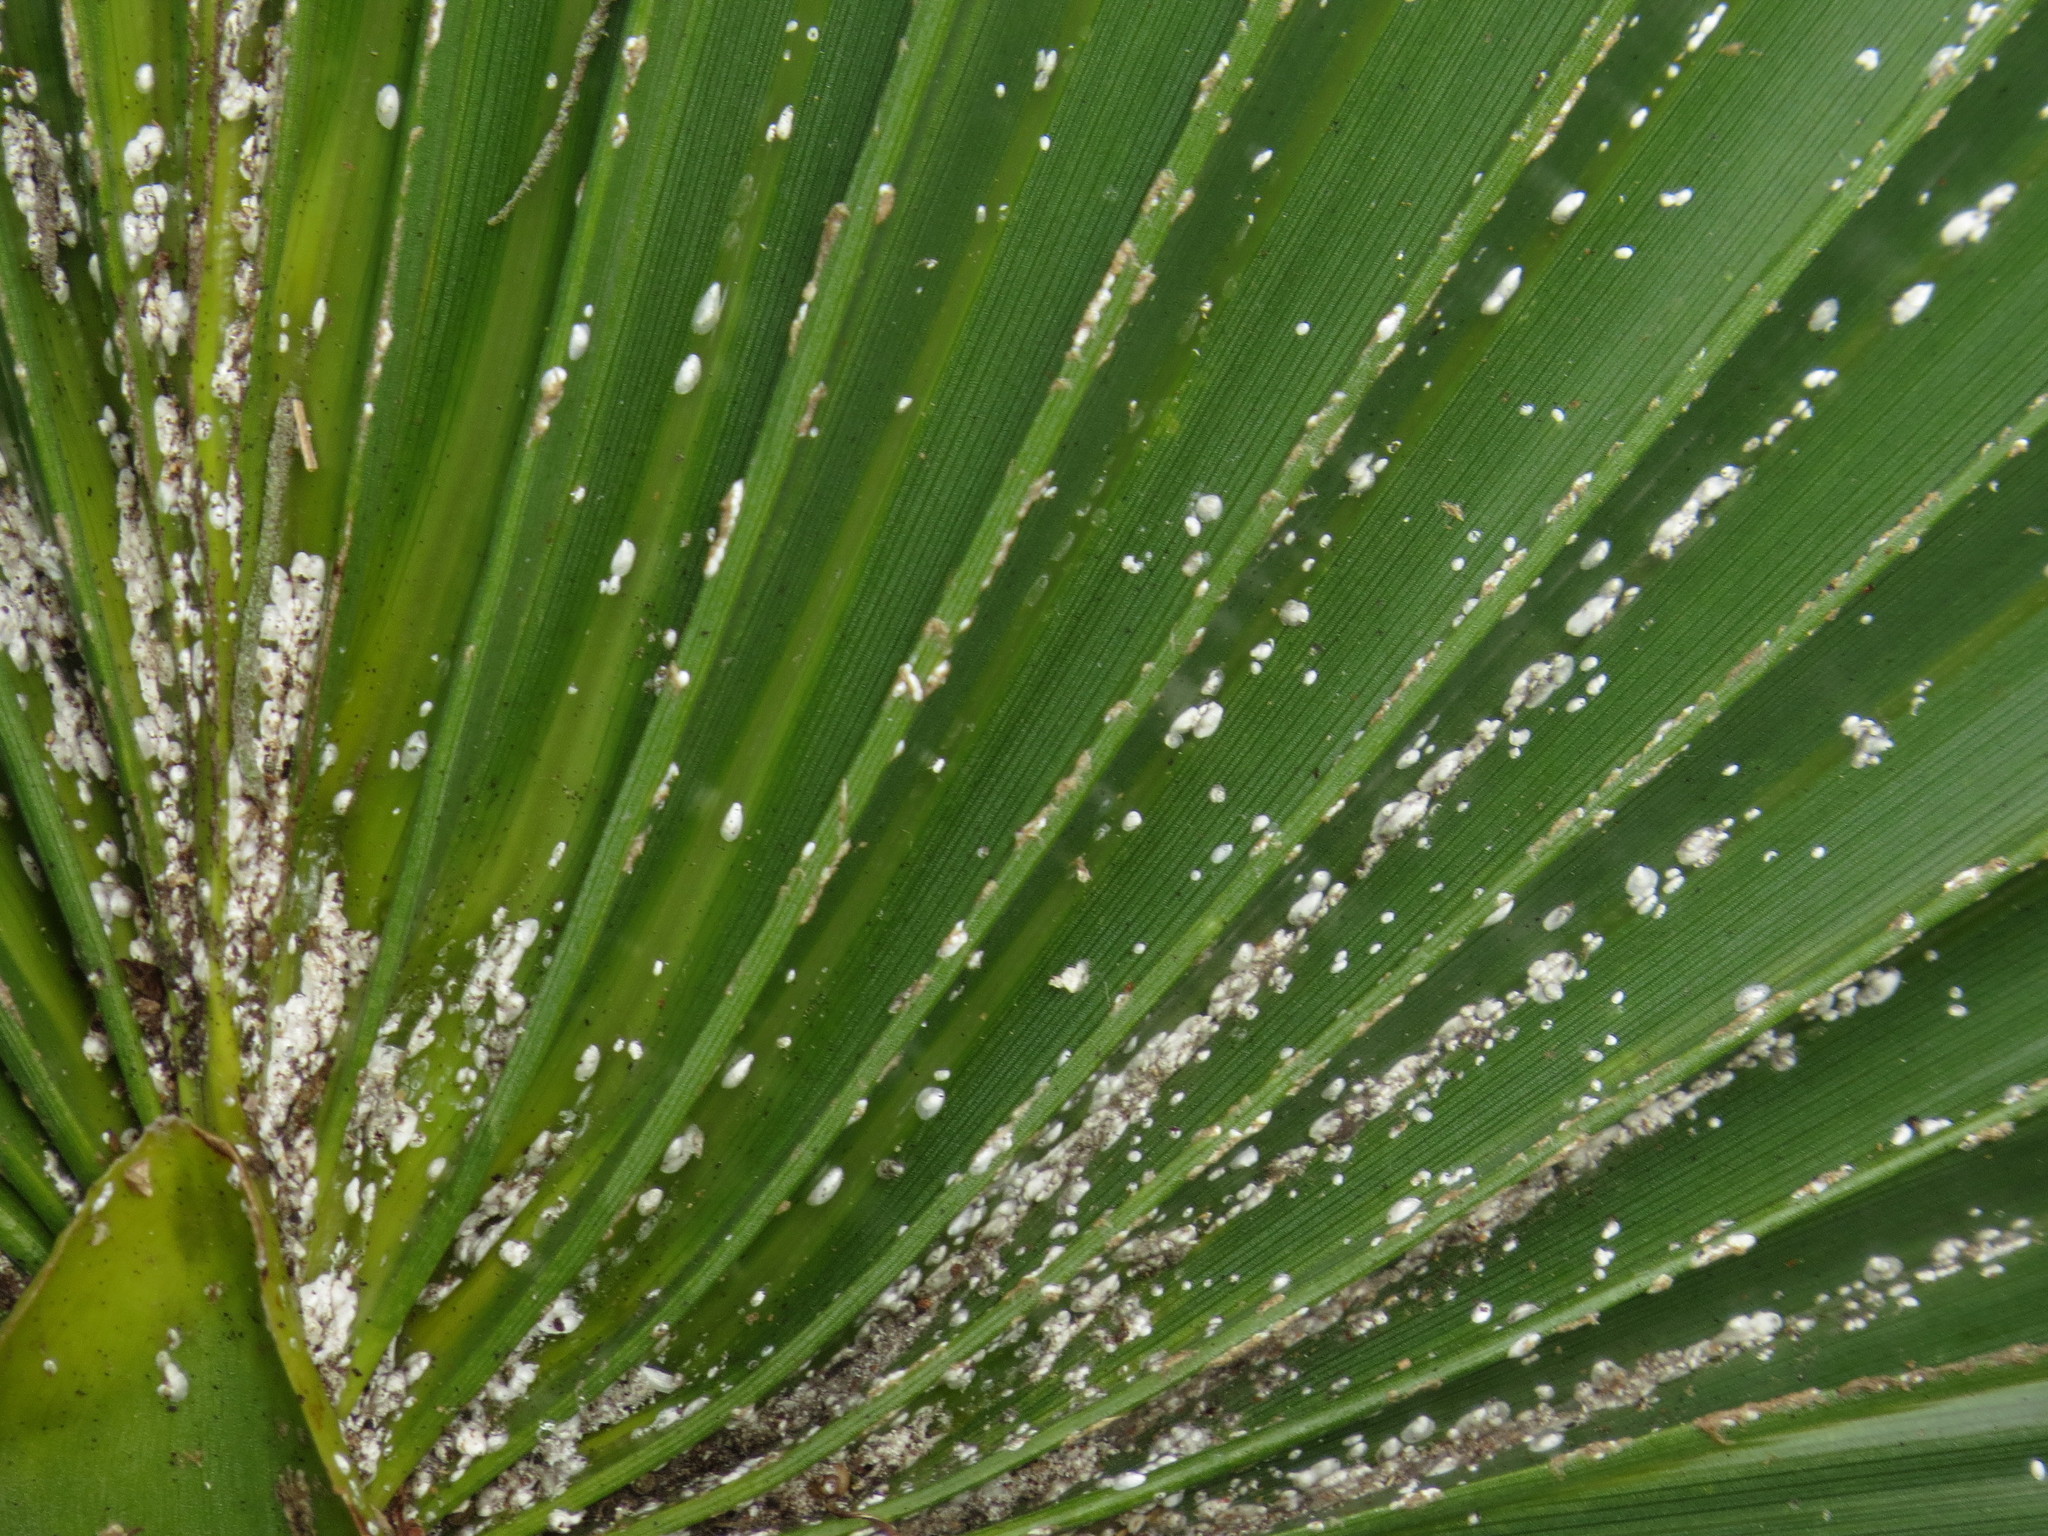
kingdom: Animalia
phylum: Arthropoda
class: Insecta
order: Hemiptera
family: Diaspididae
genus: Comstockiella
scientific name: Comstockiella sabalis
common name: Palmetto scale
